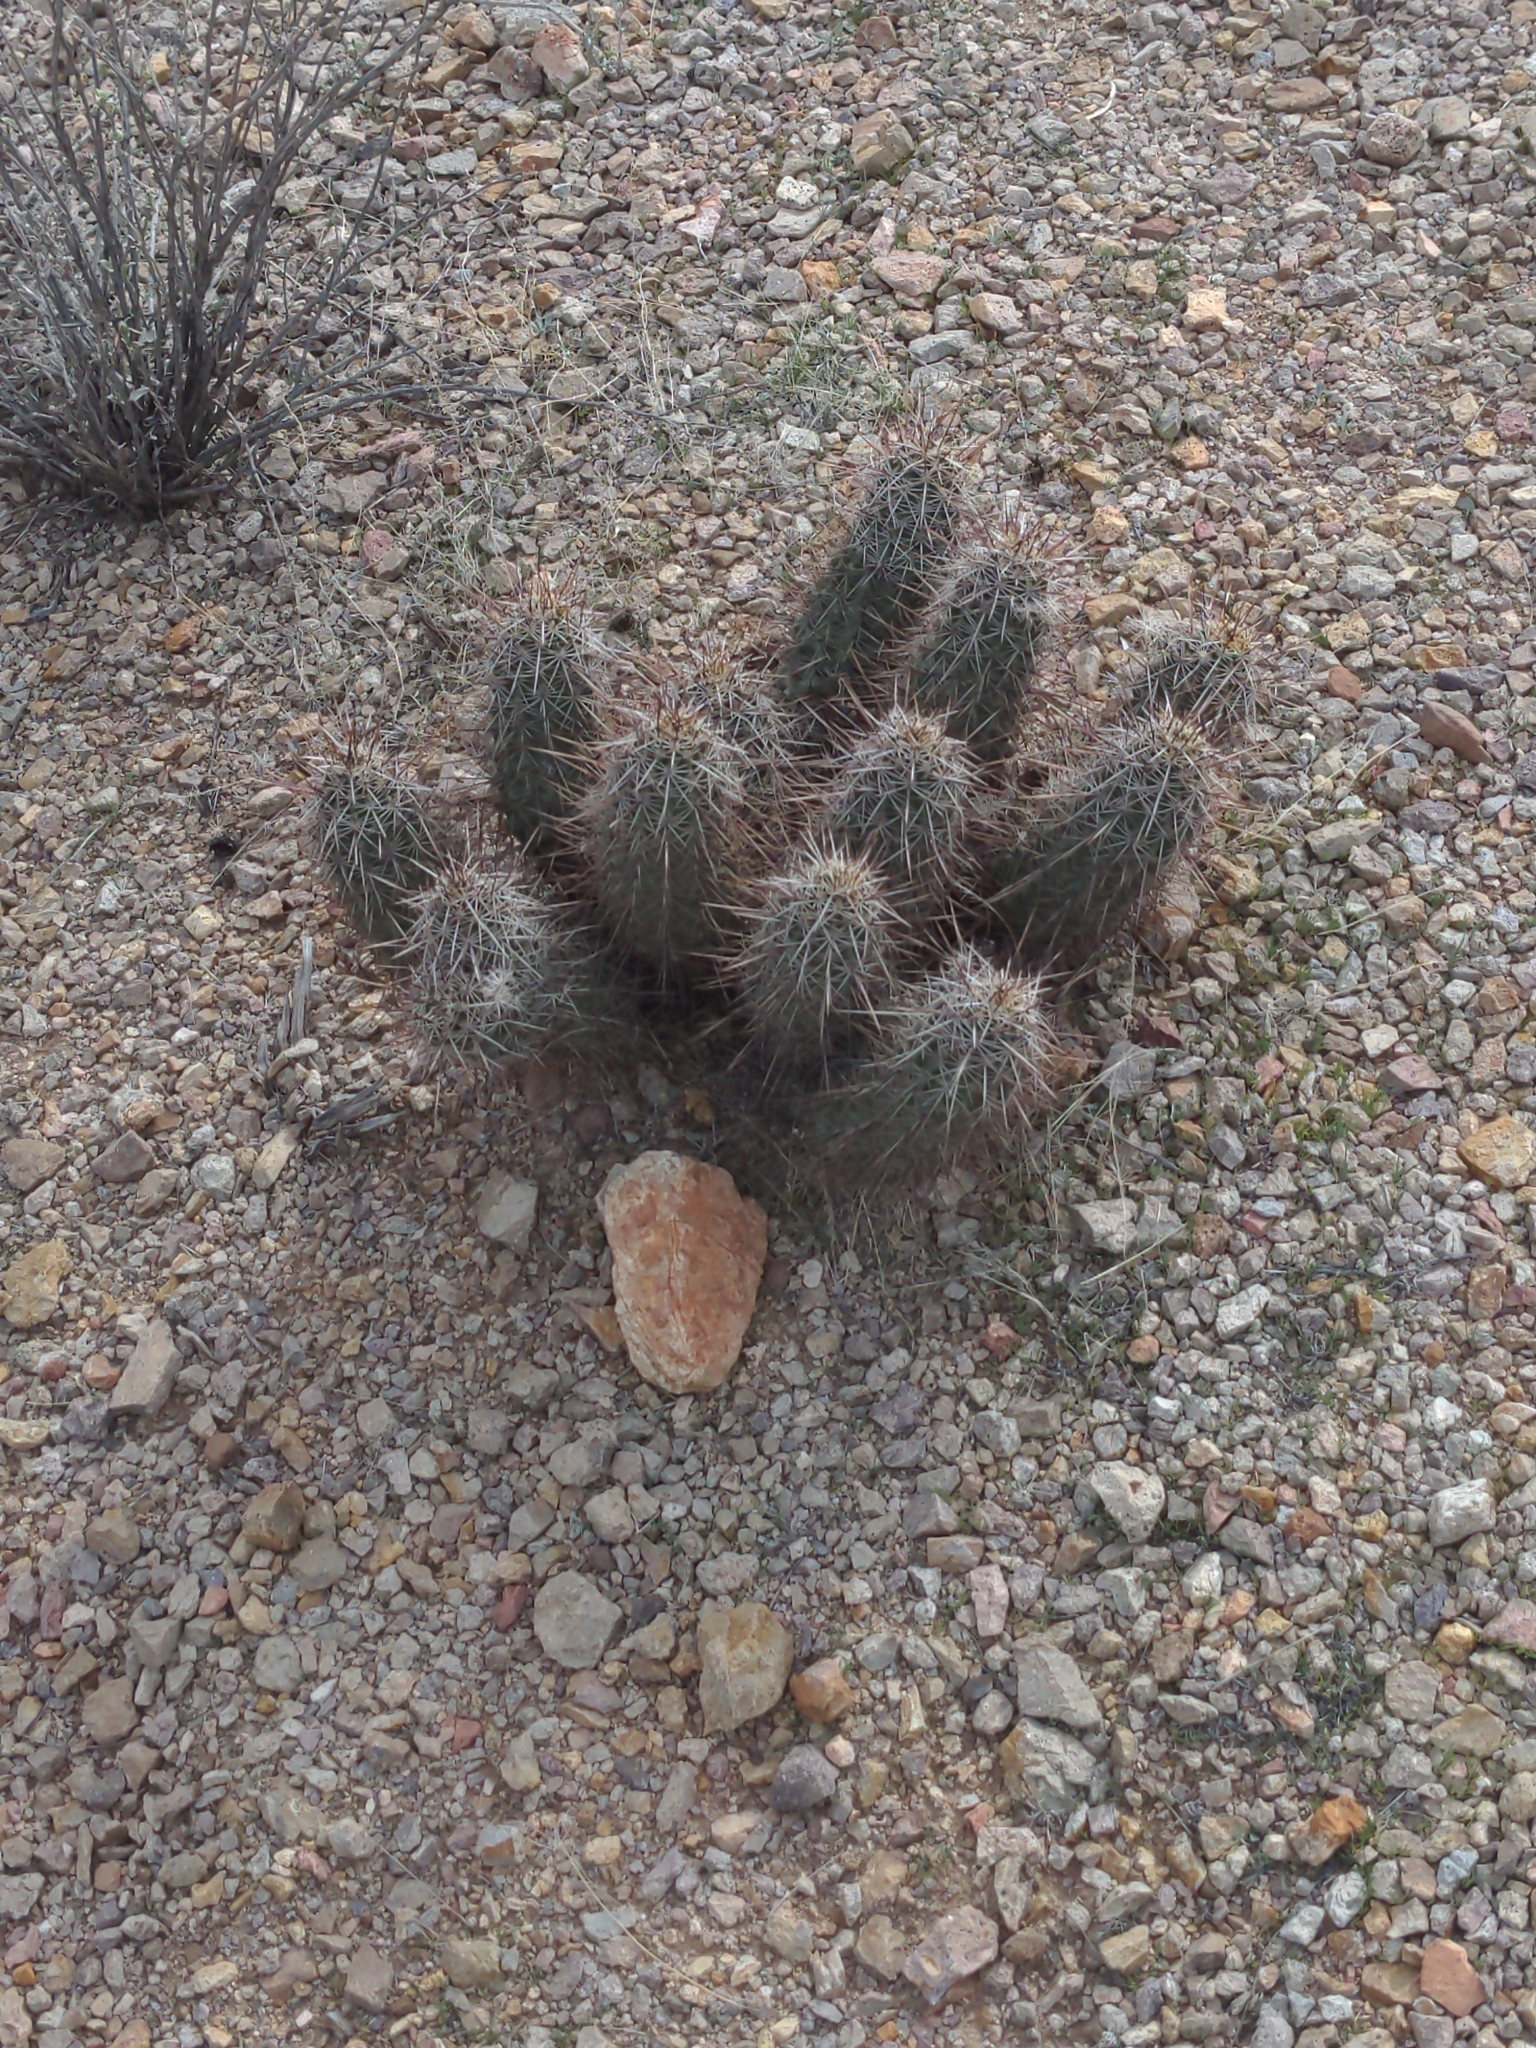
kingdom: Plantae
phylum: Tracheophyta
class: Magnoliopsida
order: Caryophyllales
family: Cactaceae
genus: Echinocereus
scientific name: Echinocereus fasciculatus
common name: Bundle hedgehog
